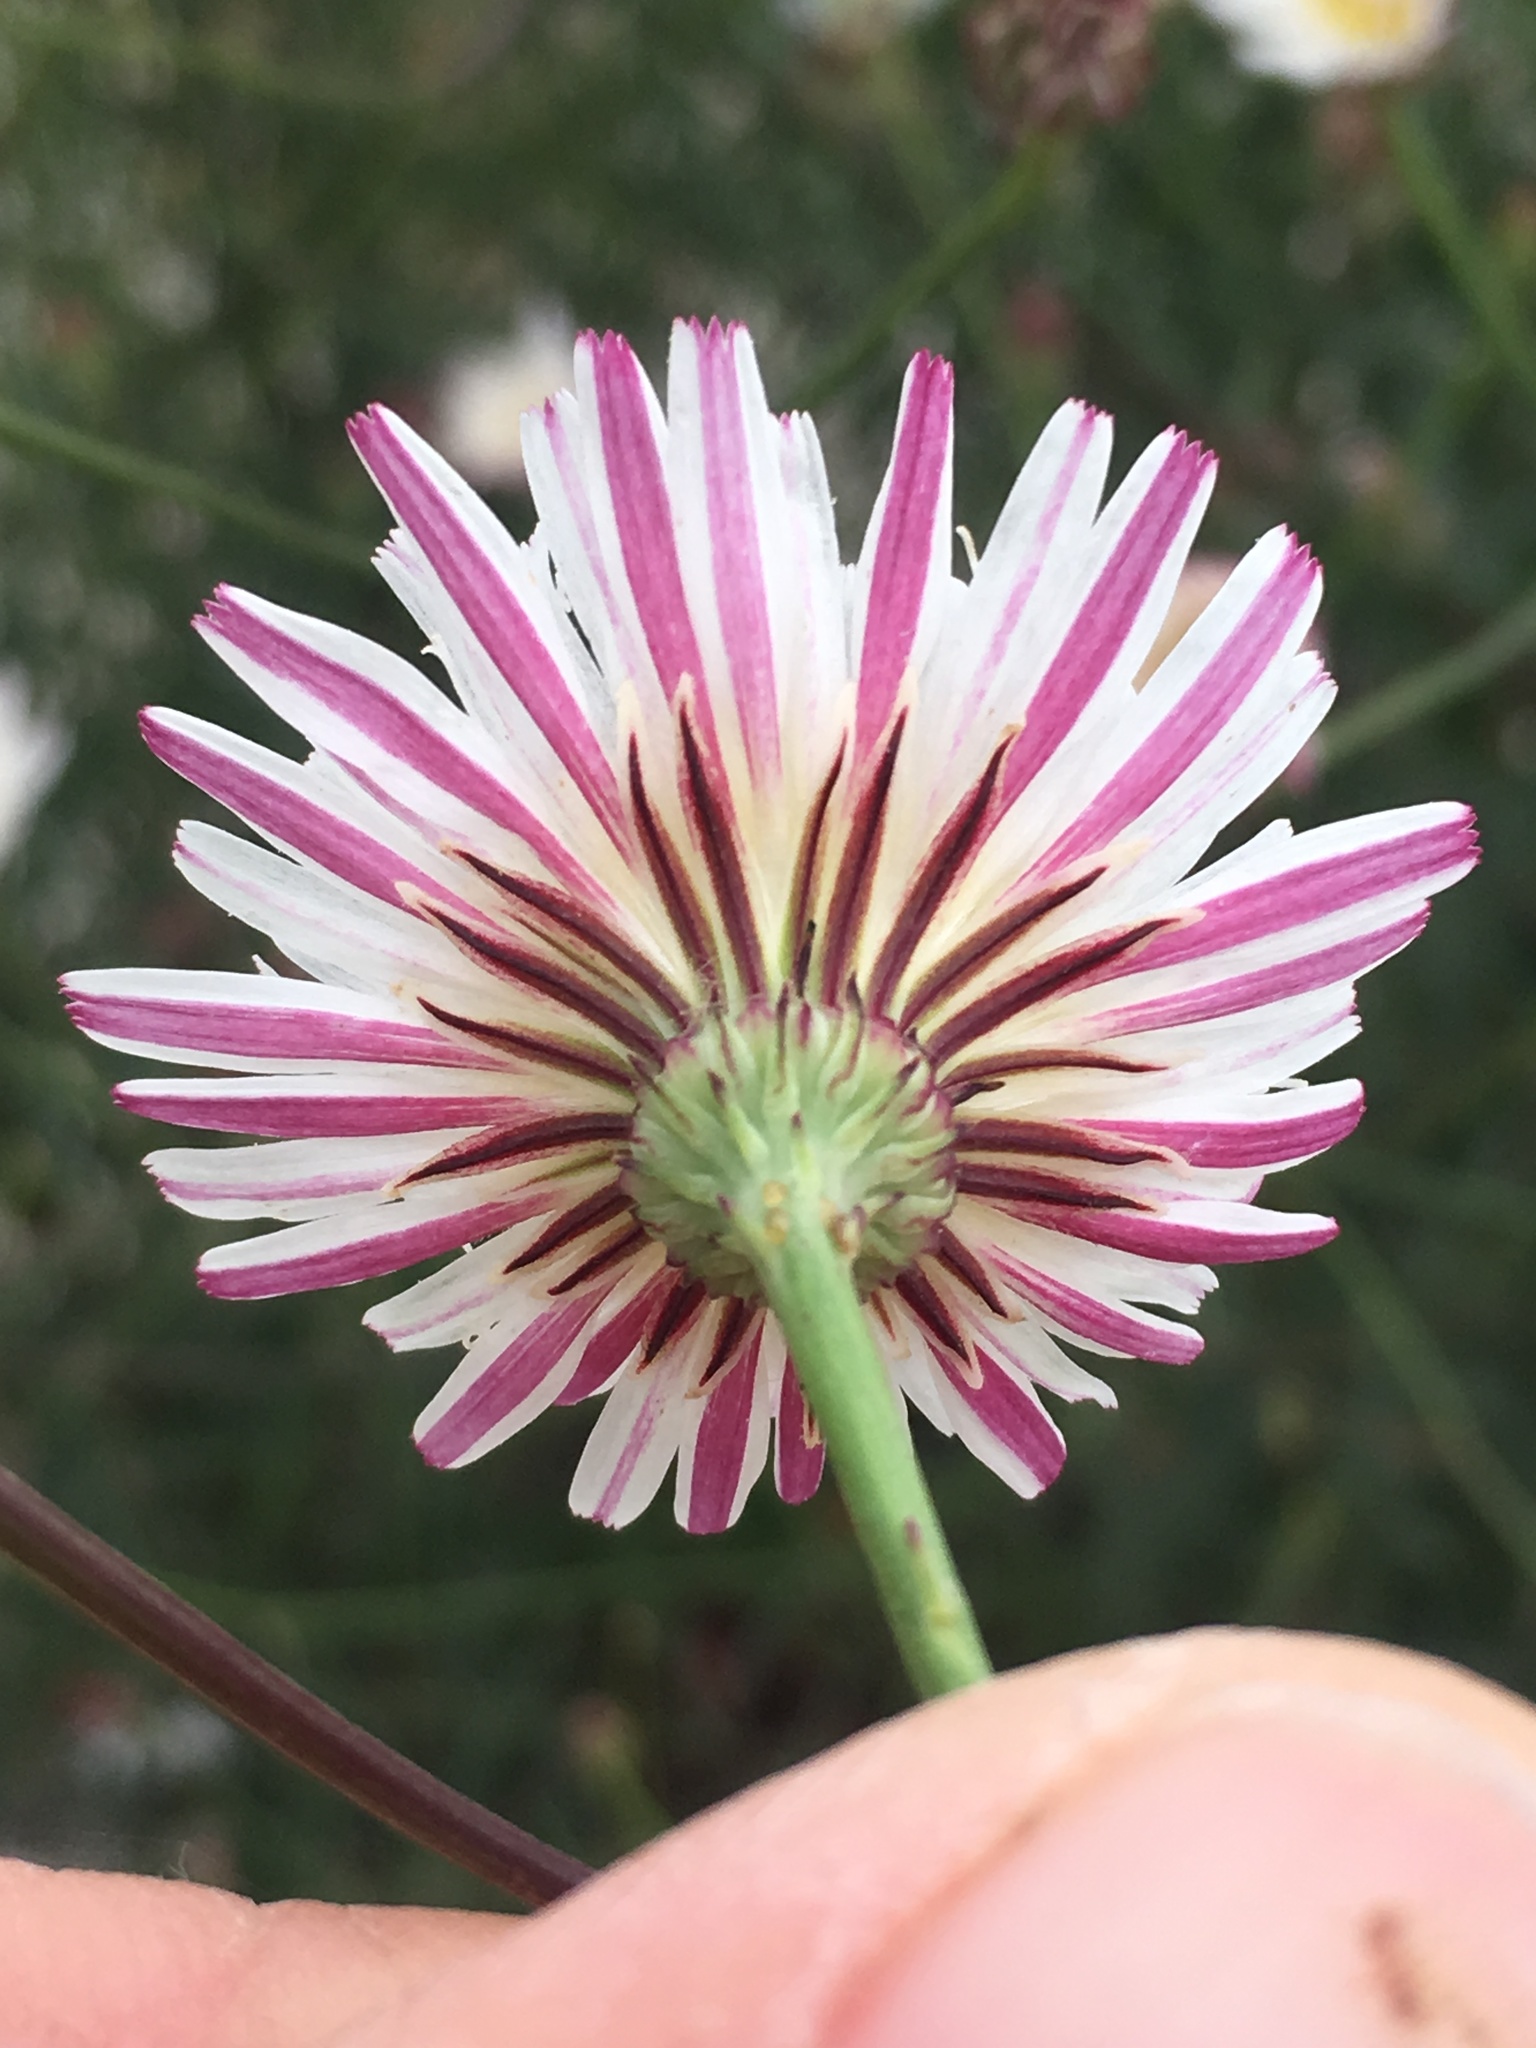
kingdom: Plantae
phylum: Tracheophyta
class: Magnoliopsida
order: Asterales
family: Asteraceae
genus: Malacothrix
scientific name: Malacothrix saxatilis
